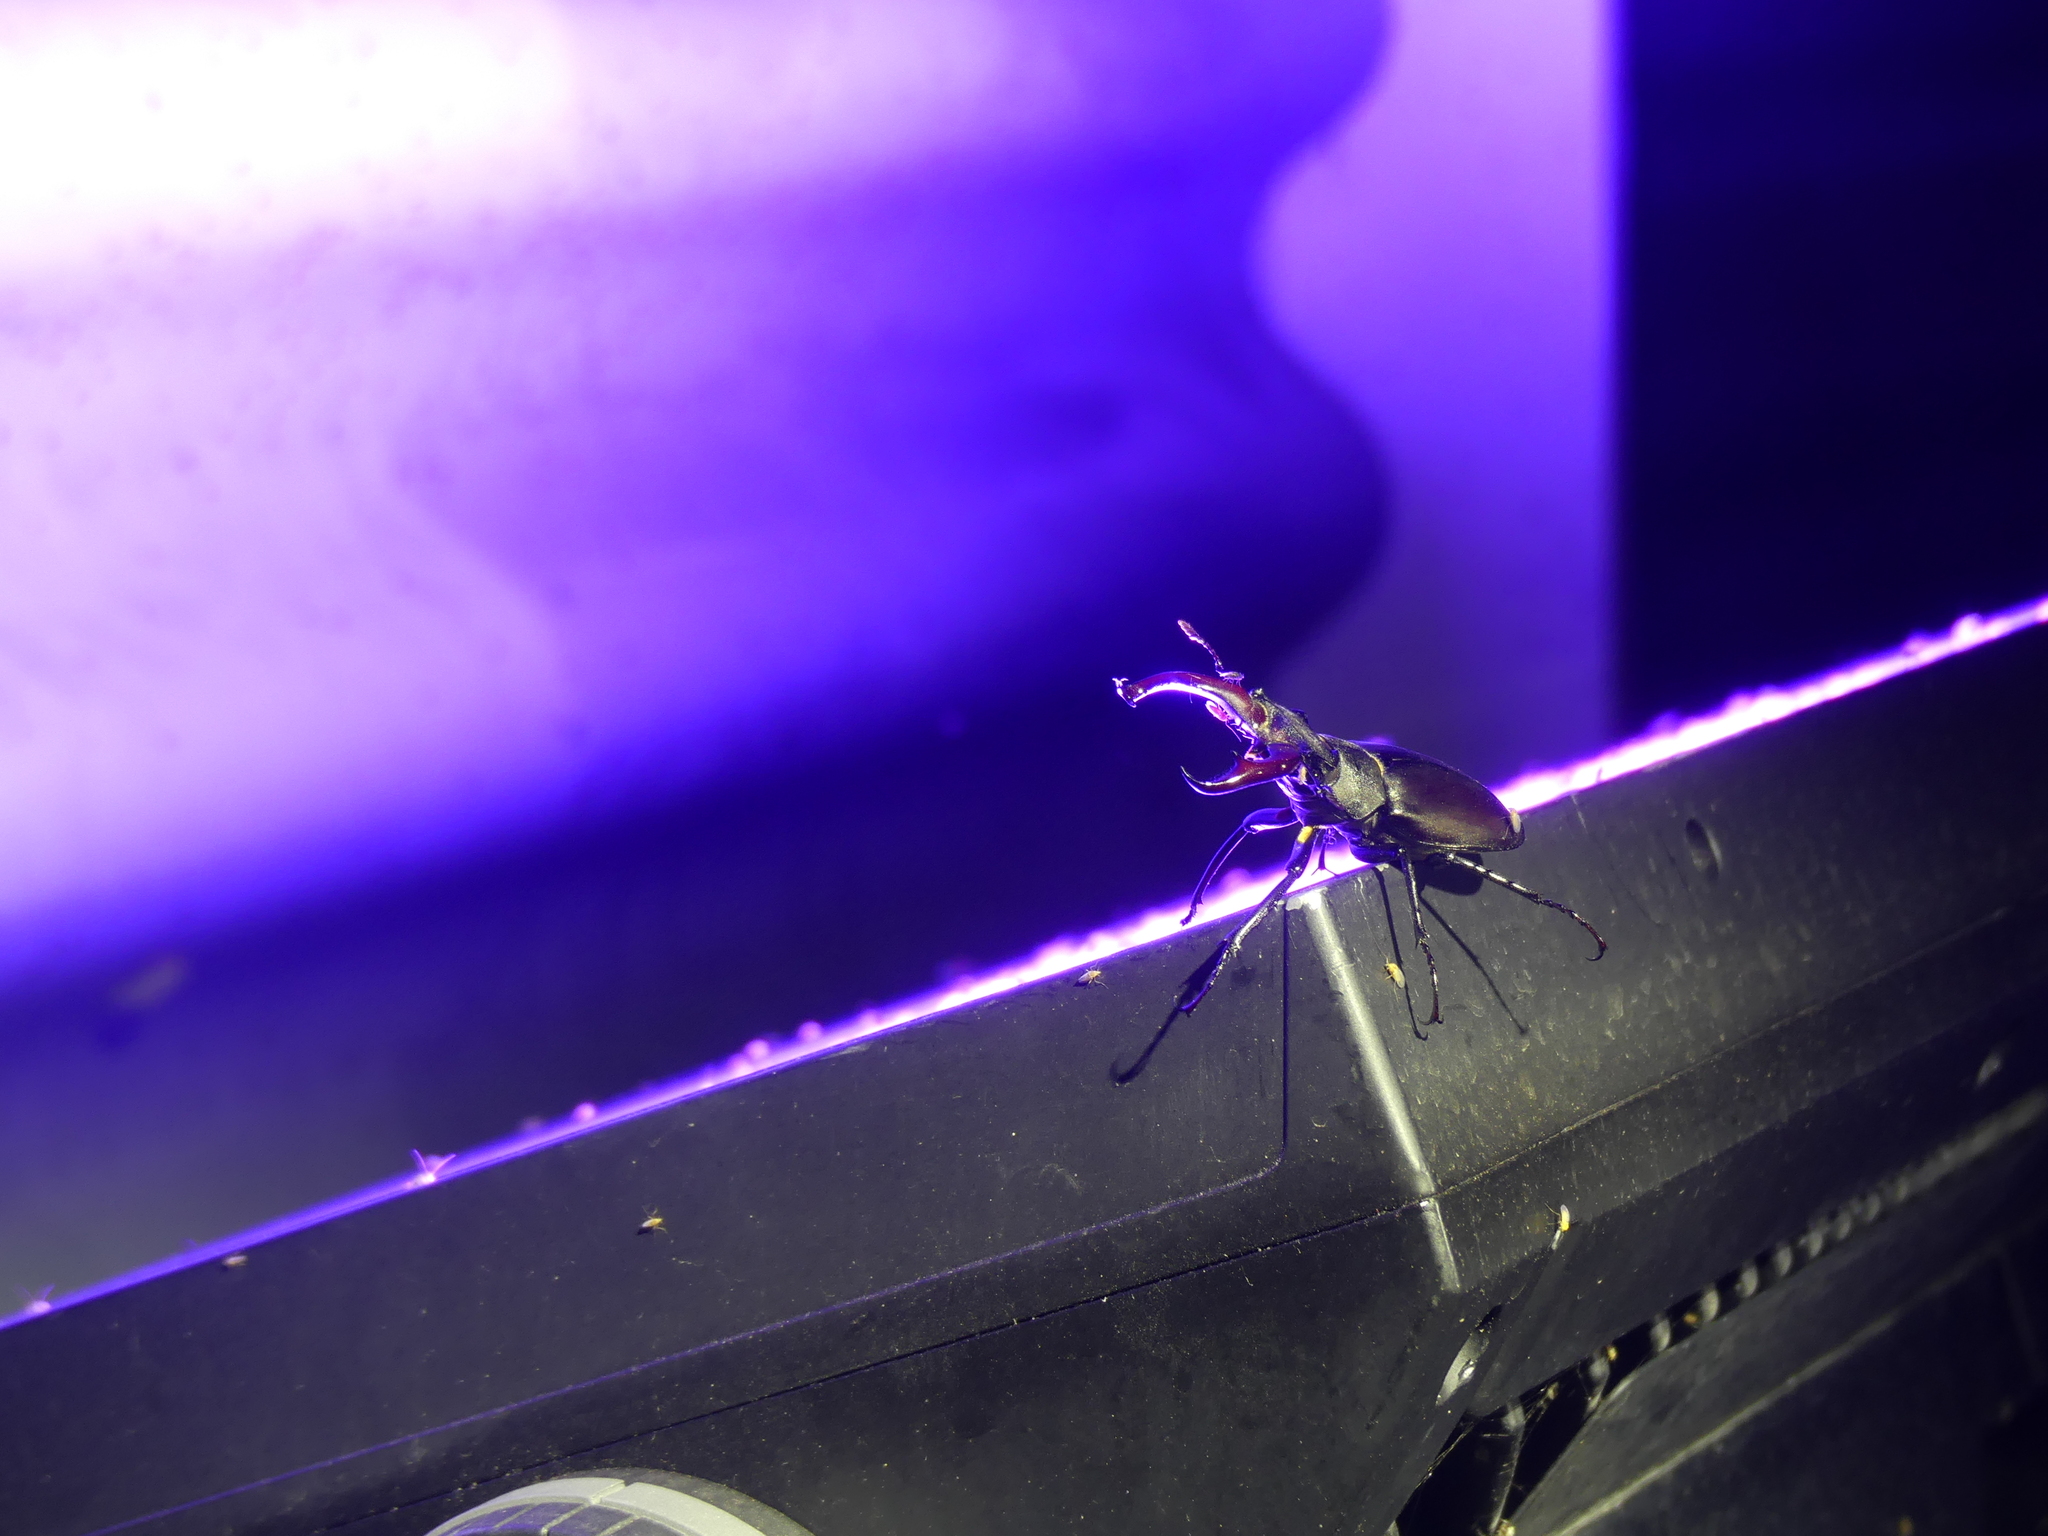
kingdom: Animalia
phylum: Arthropoda
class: Insecta
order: Coleoptera
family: Lucanidae
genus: Lucanus
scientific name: Lucanus cervus
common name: Stag beetle
